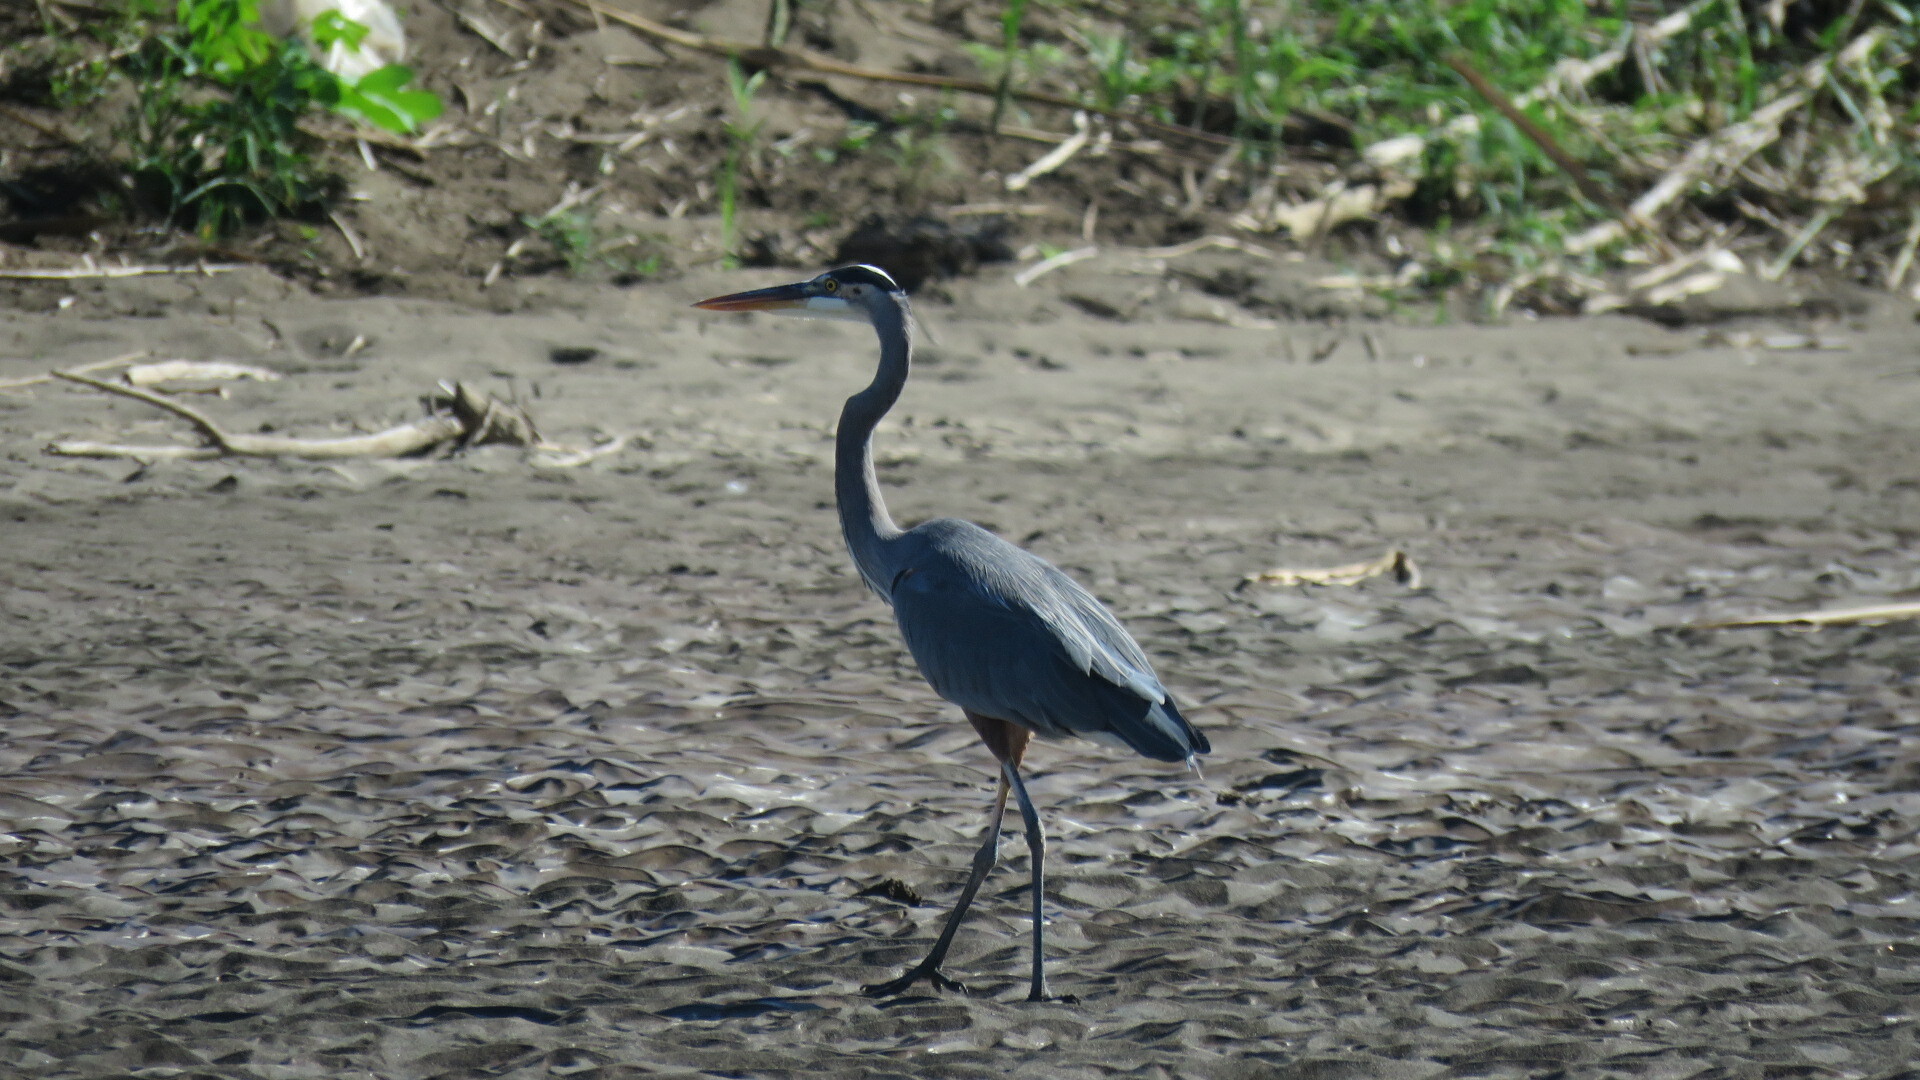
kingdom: Animalia
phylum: Chordata
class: Aves
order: Pelecaniformes
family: Ardeidae
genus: Ardea
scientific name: Ardea herodias
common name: Great blue heron
